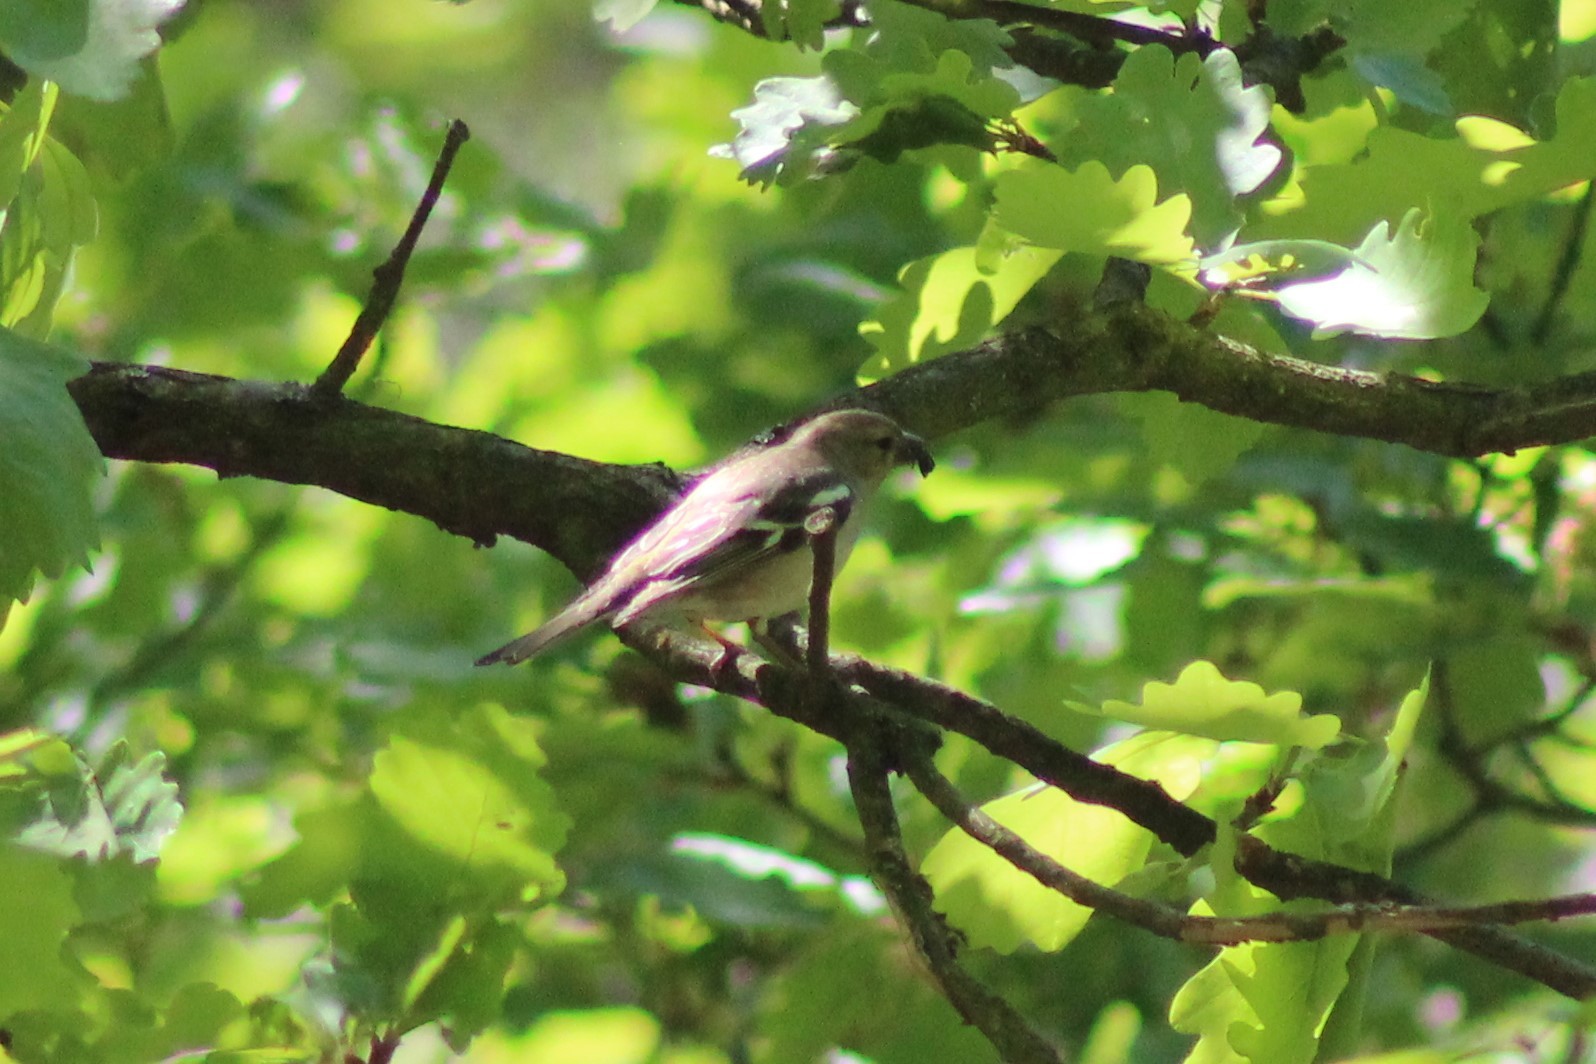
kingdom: Animalia
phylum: Chordata
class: Aves
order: Passeriformes
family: Muscicapidae
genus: Ficedula
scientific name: Ficedula albicollis
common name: Collared flycatcher
